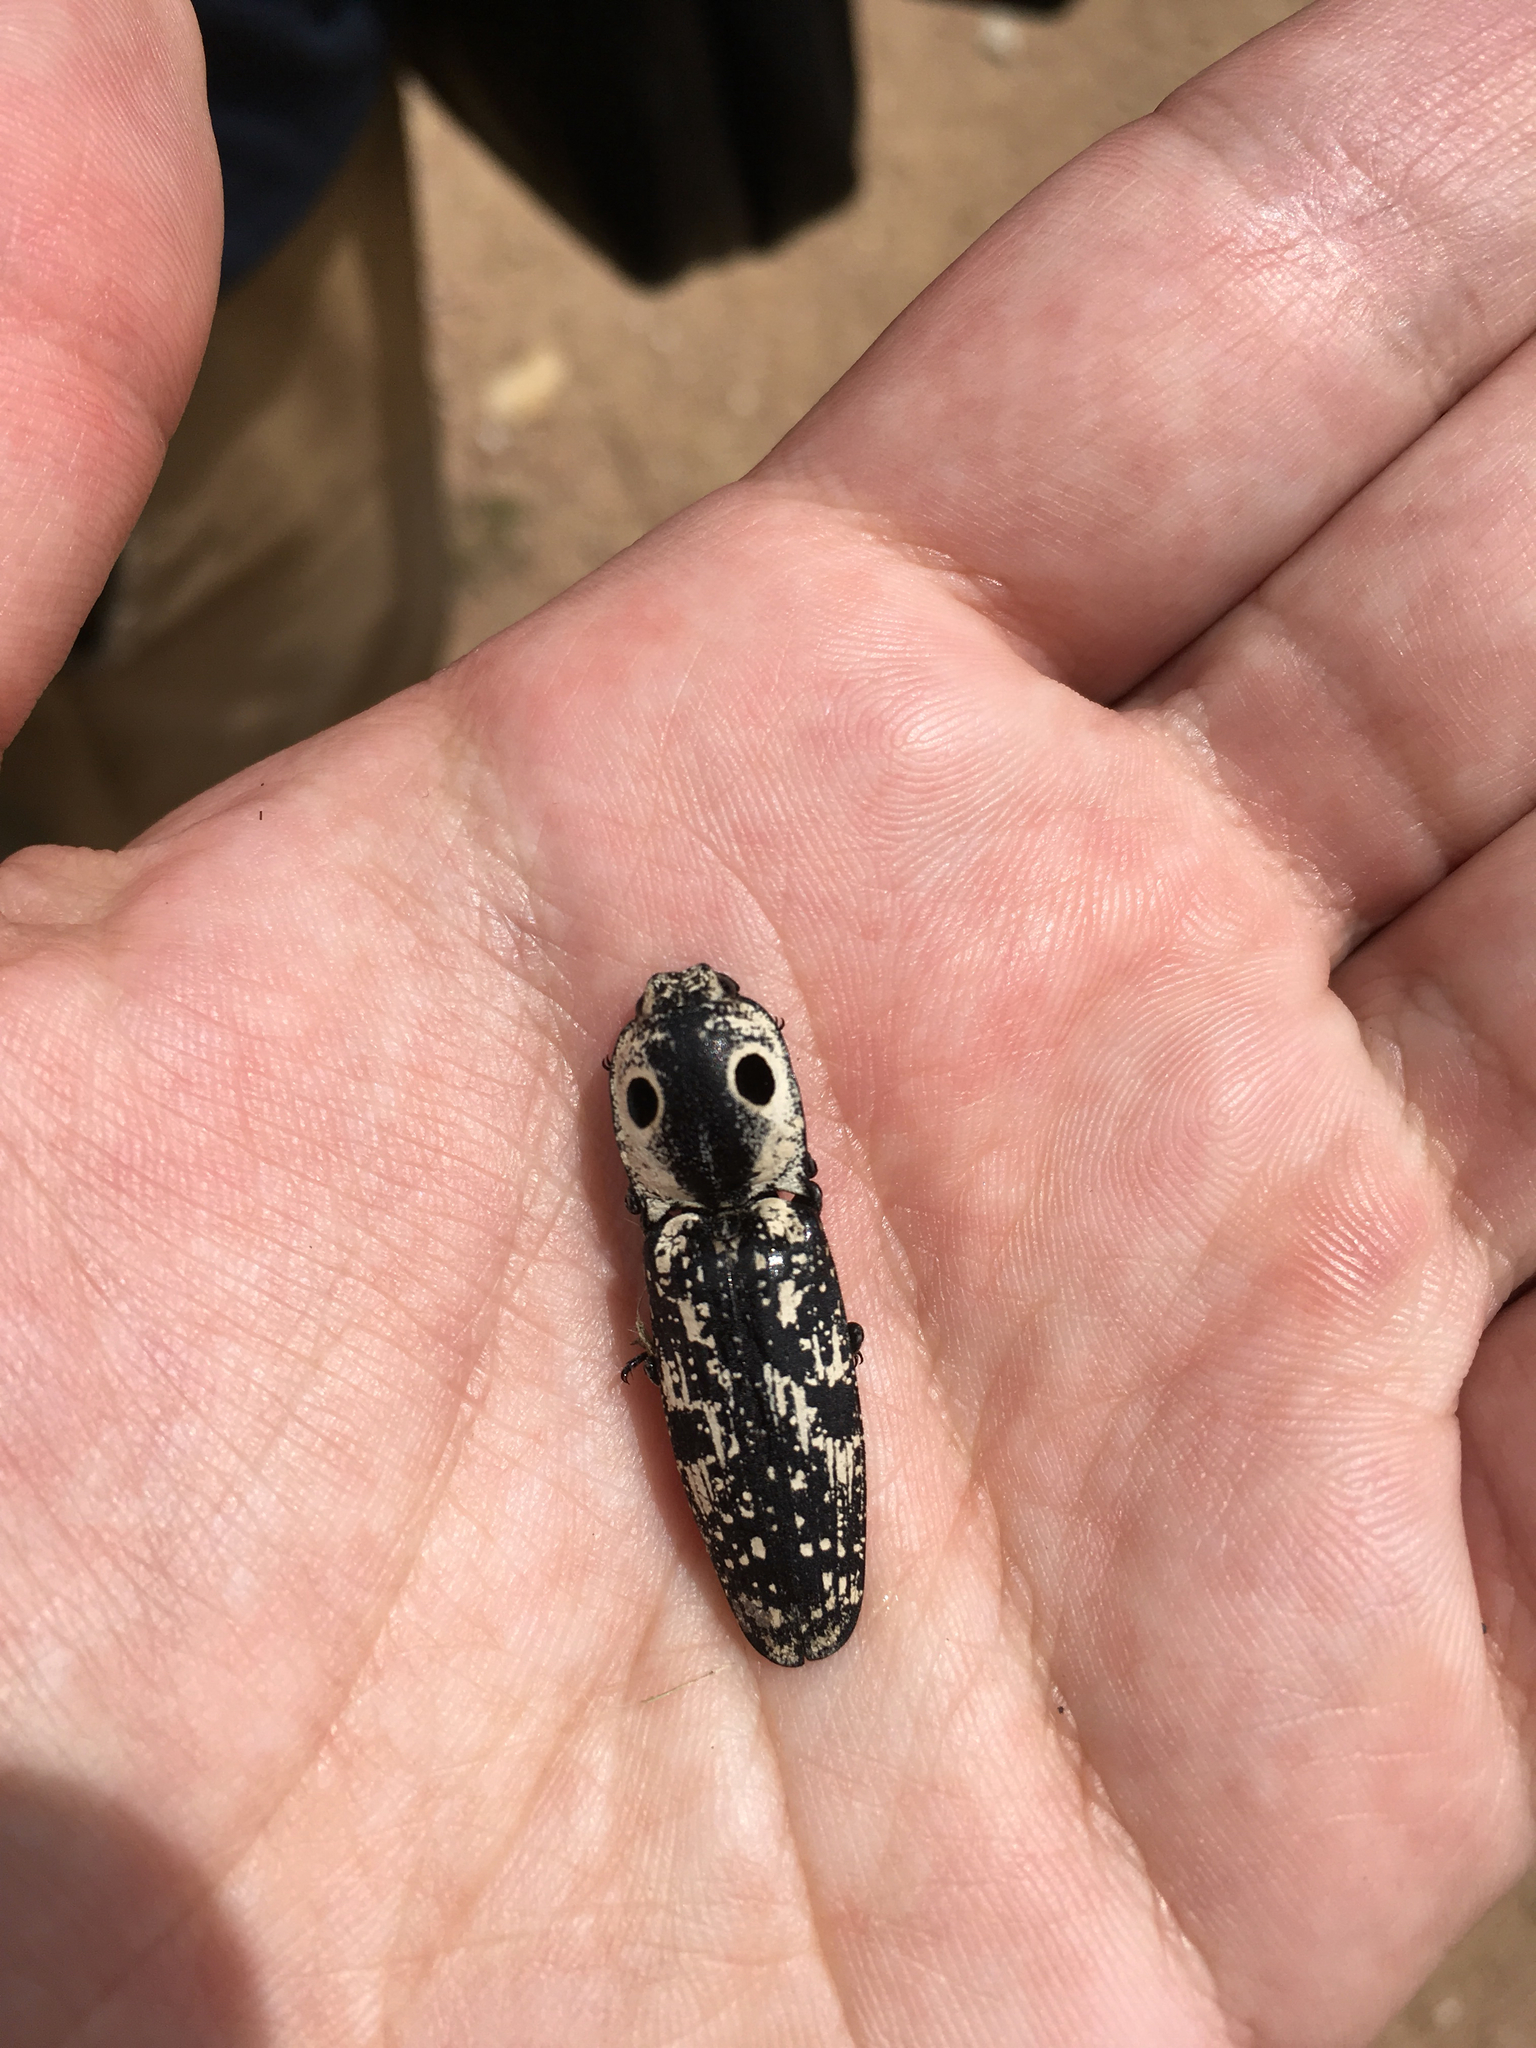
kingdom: Animalia
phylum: Arthropoda
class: Insecta
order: Coleoptera
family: Elateridae
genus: Alaus
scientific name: Alaus
